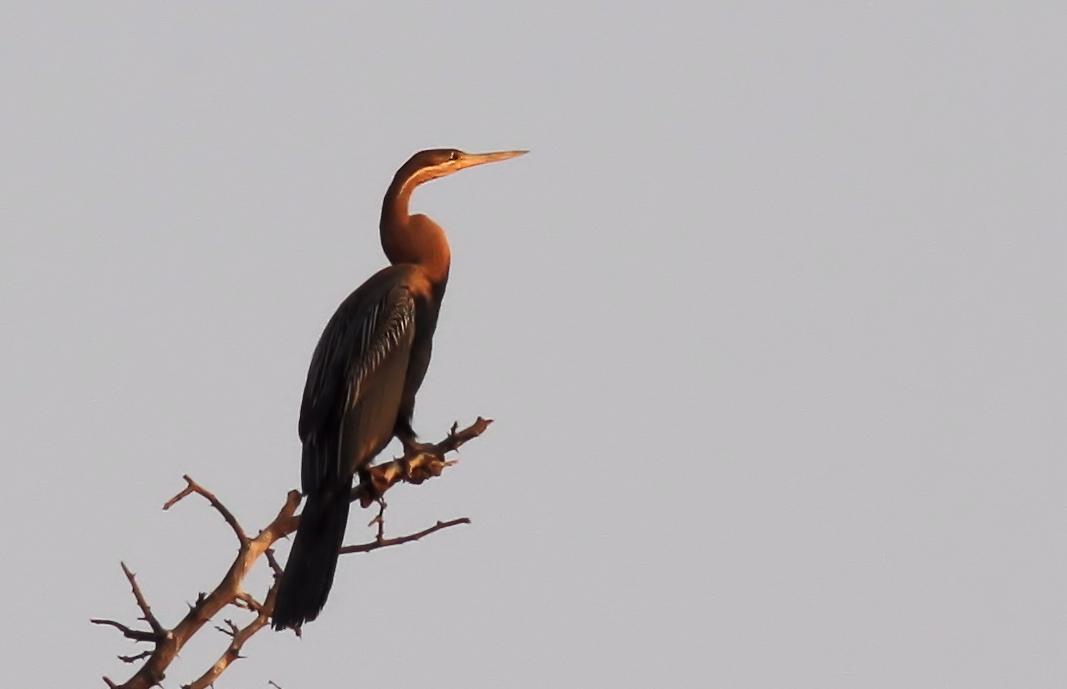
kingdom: Animalia
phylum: Chordata
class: Aves
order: Suliformes
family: Anhingidae
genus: Anhinga
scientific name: Anhinga rufa
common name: African darter
